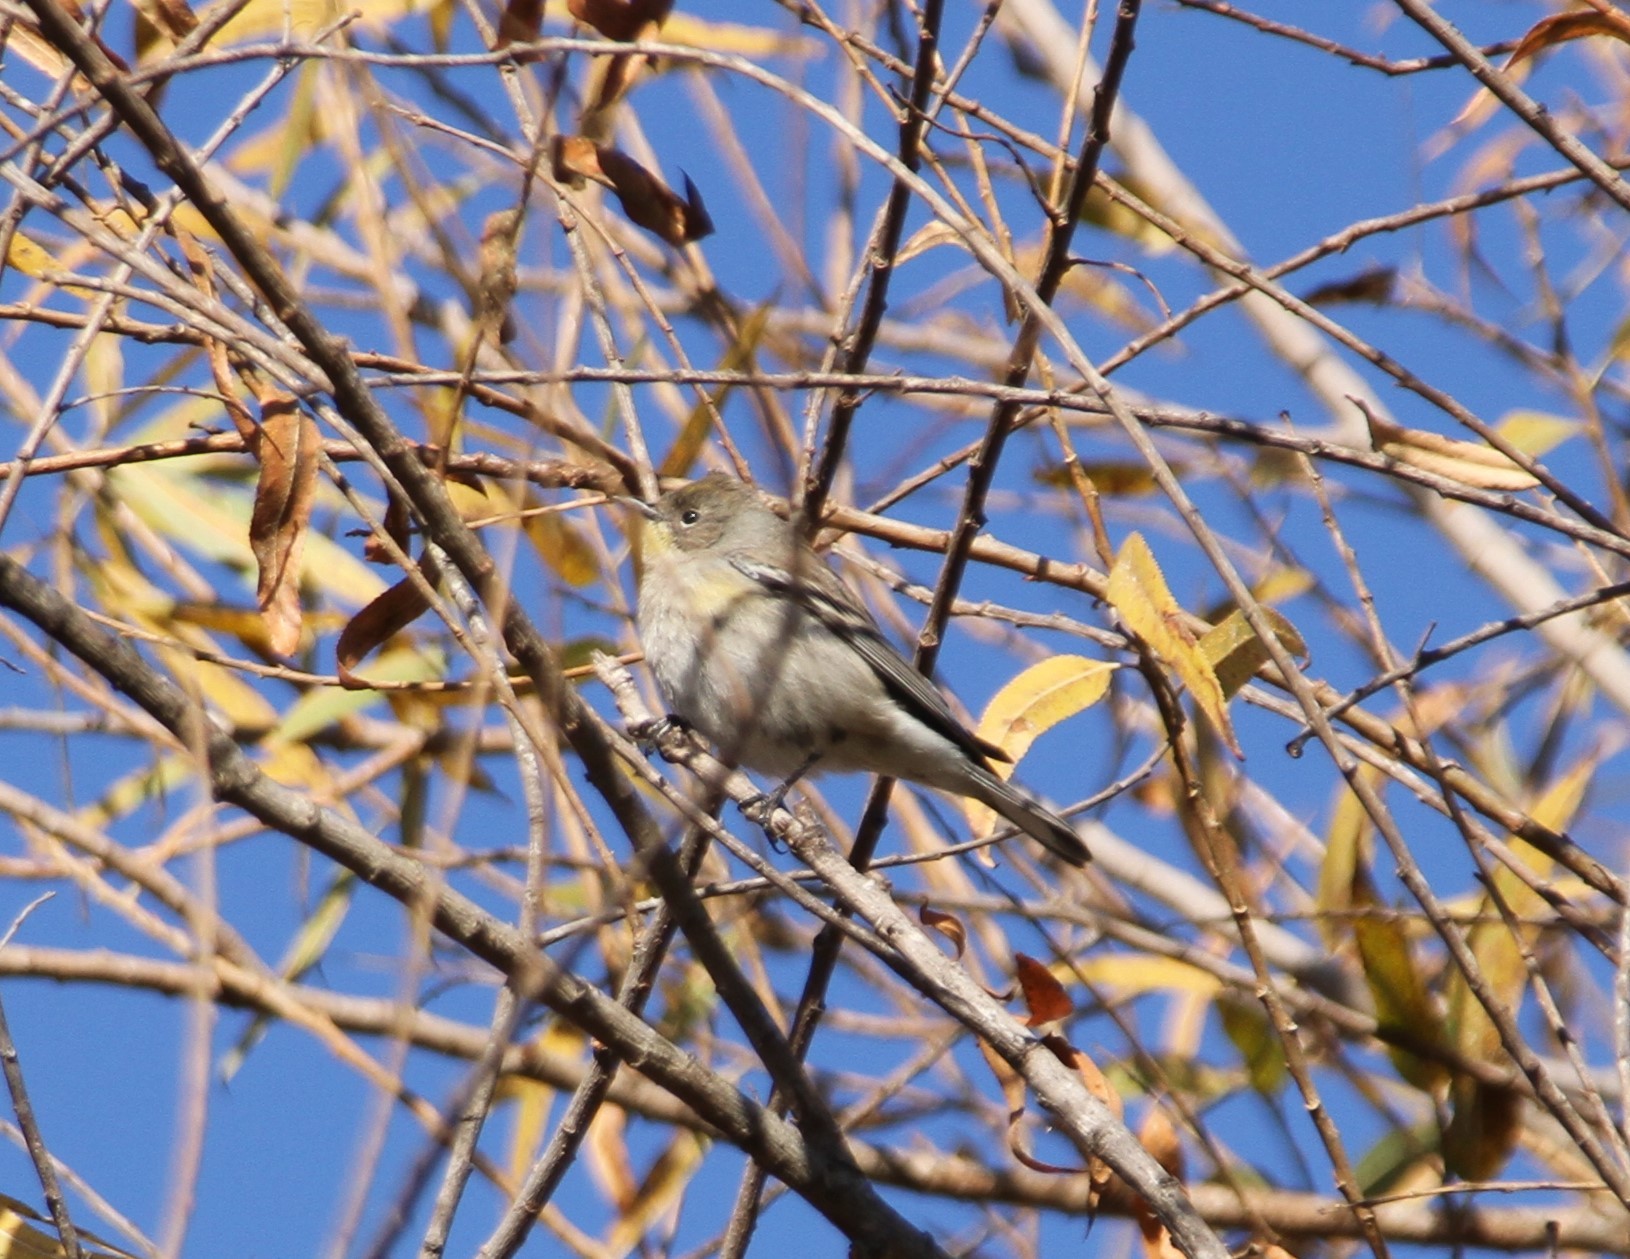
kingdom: Animalia
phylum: Chordata
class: Aves
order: Passeriformes
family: Parulidae
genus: Setophaga
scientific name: Setophaga auduboni
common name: Audubon's warbler
